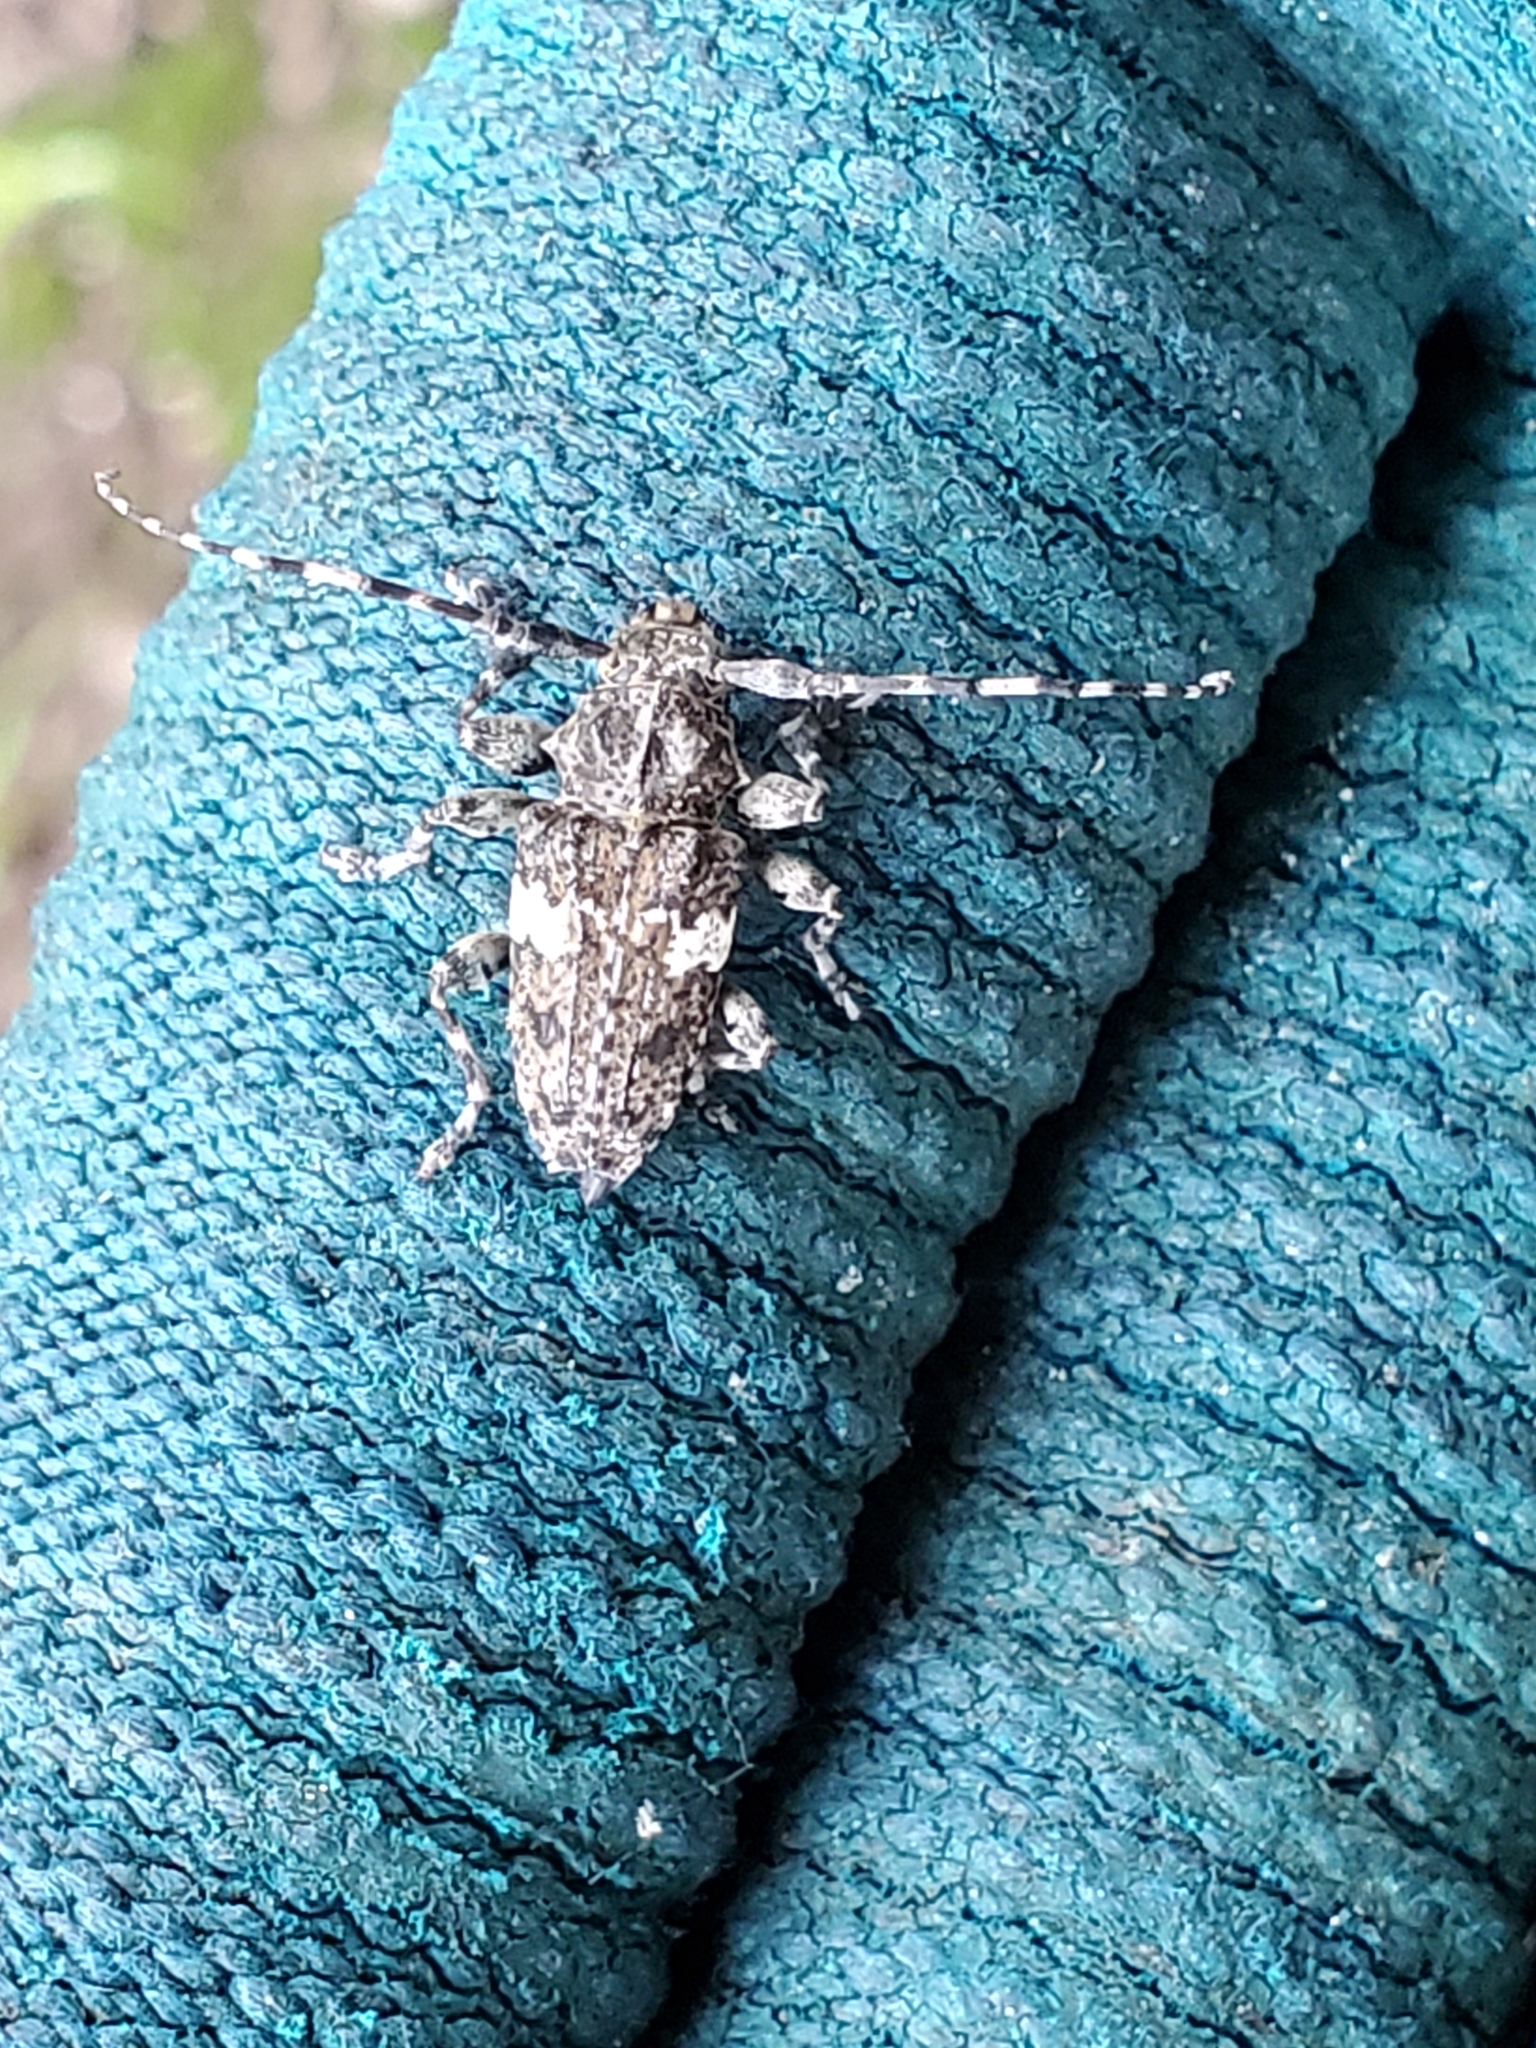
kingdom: Animalia
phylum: Arthropoda
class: Insecta
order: Coleoptera
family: Cerambycidae
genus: Acanthoderes
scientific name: Acanthoderes quadrigibba
